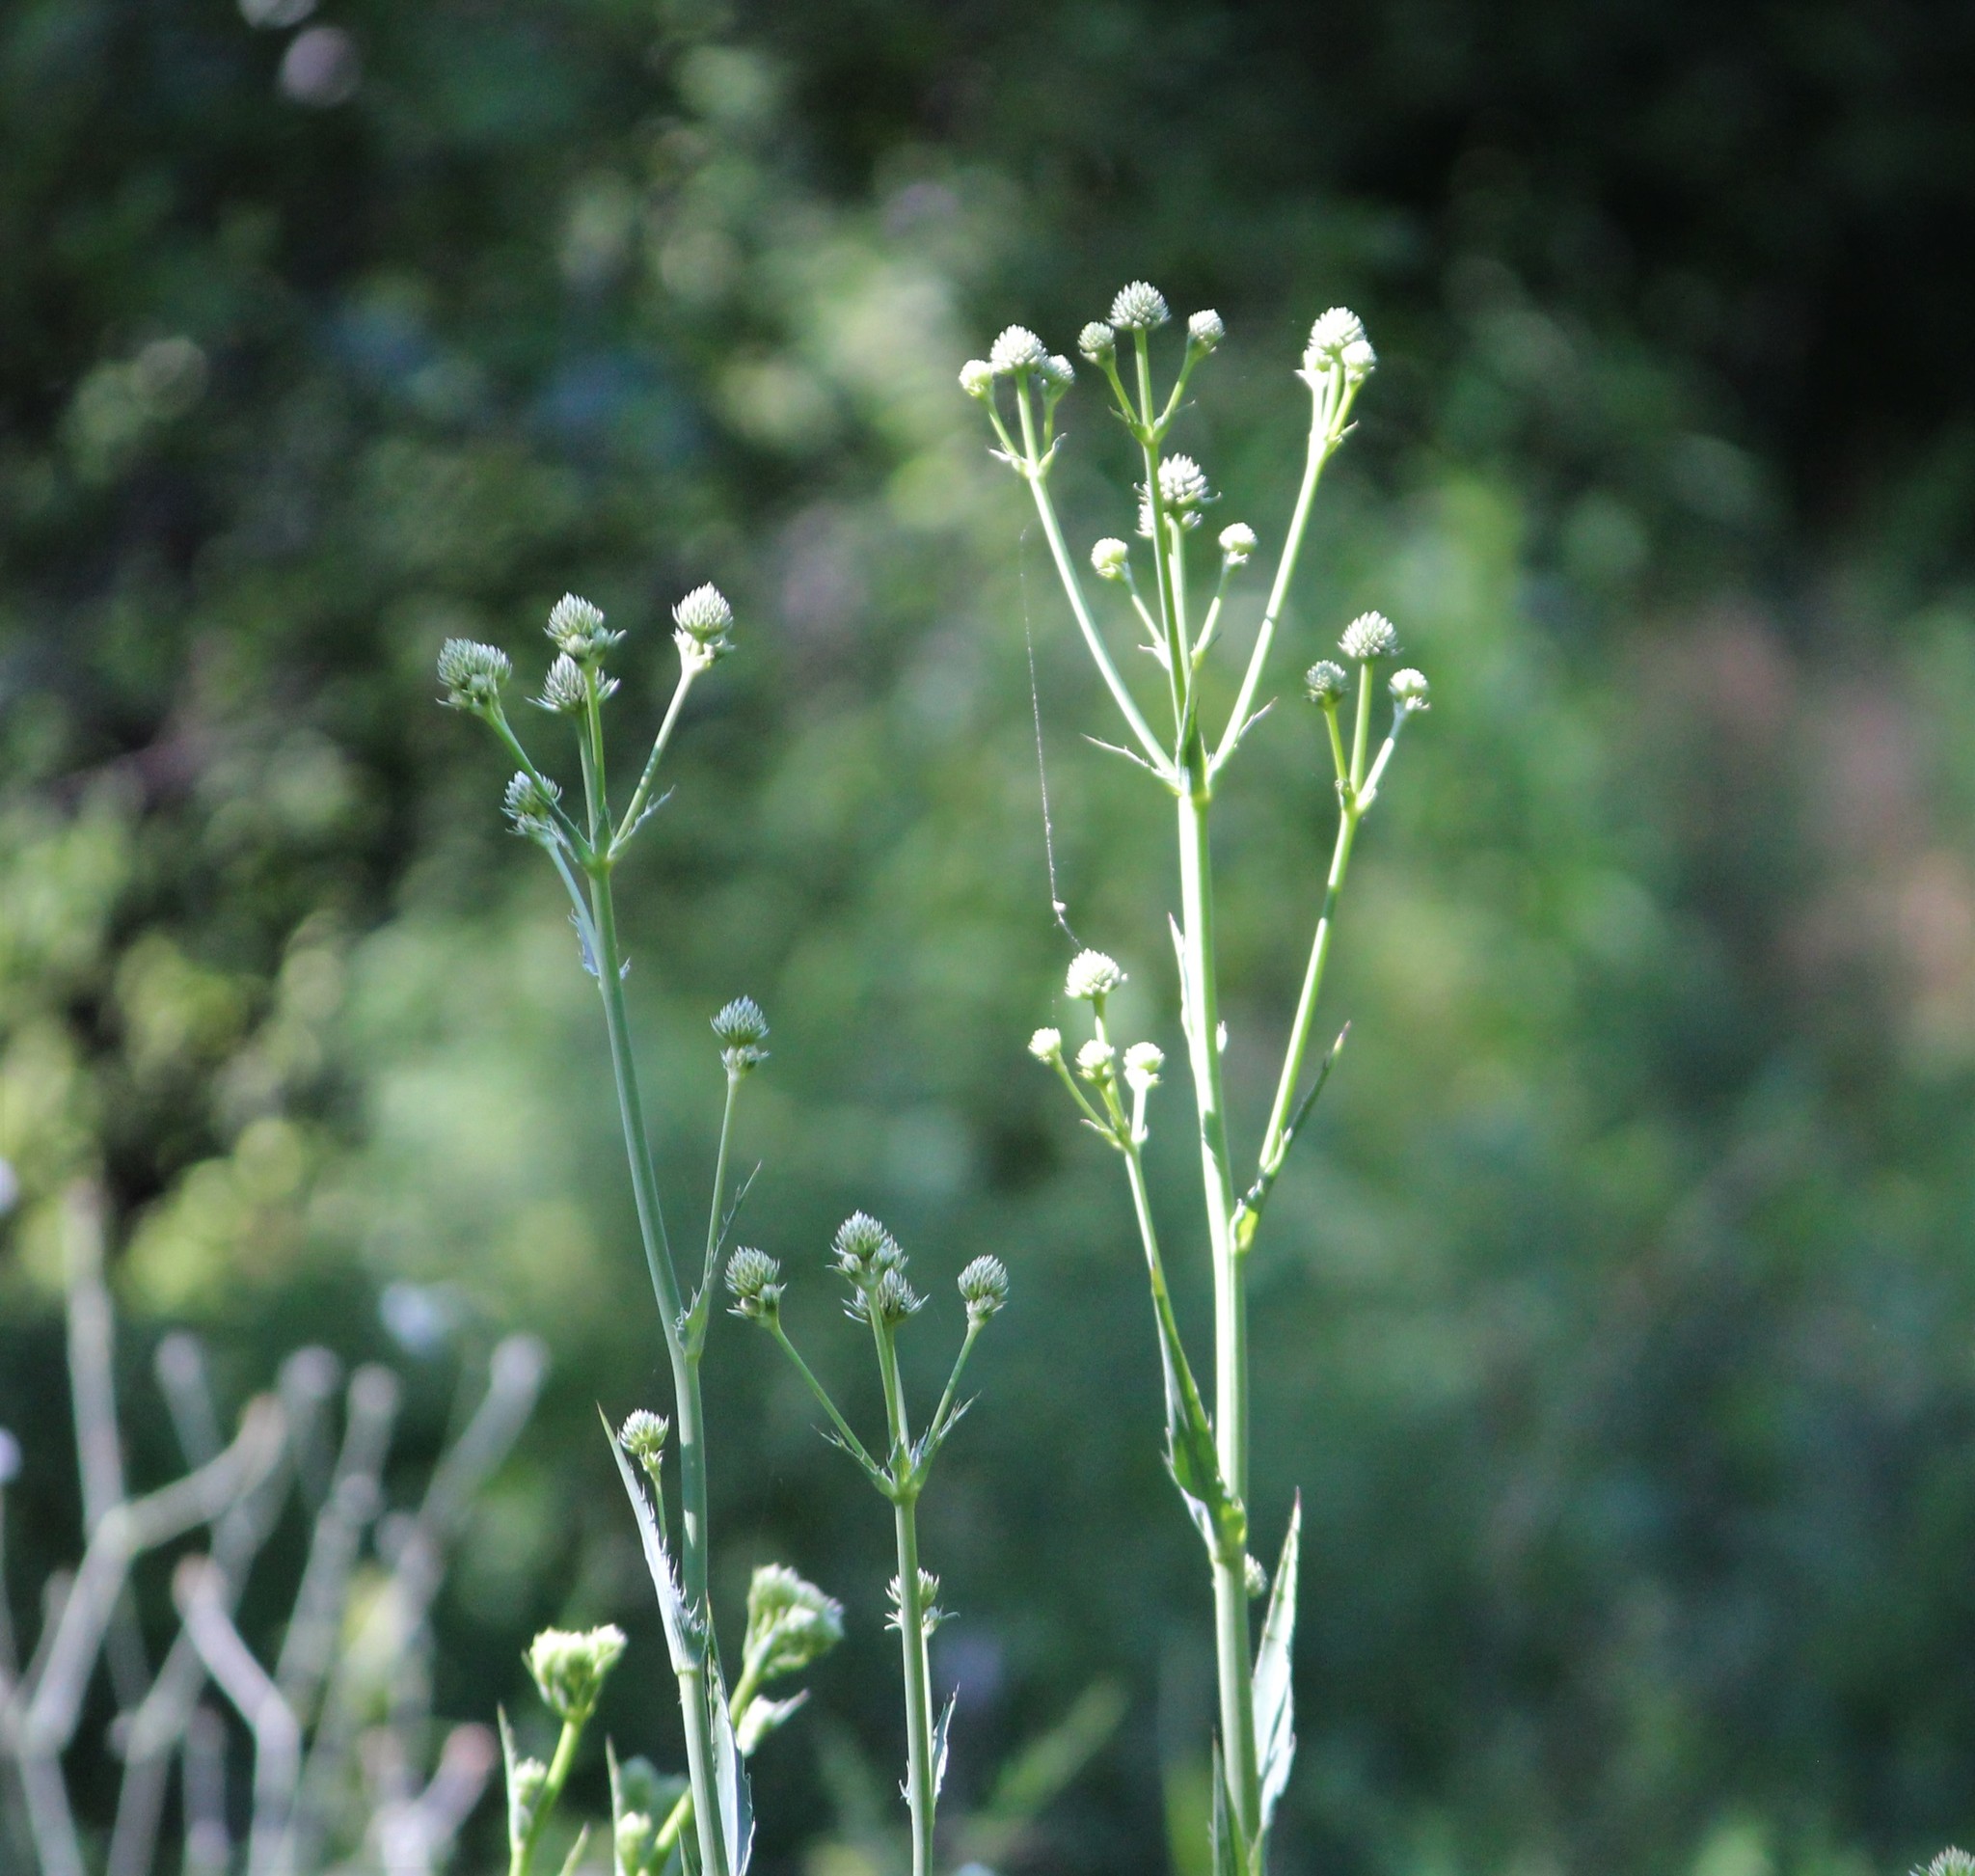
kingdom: Plantae
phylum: Tracheophyta
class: Magnoliopsida
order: Apiales
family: Apiaceae
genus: Eryngium
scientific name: Eryngium yuccifolium
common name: Button eryngo
